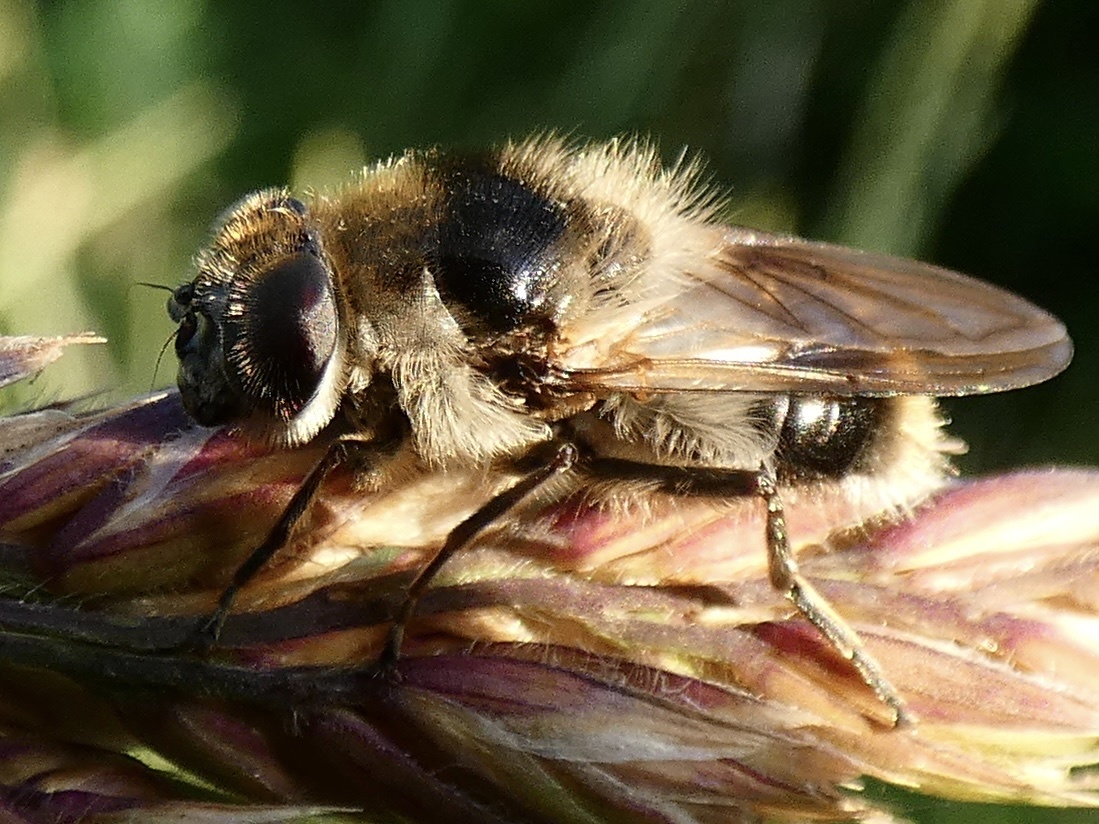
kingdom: Animalia
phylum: Arthropoda
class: Insecta
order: Diptera
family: Syrphidae
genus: Cheilosia
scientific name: Cheilosia illustrata
